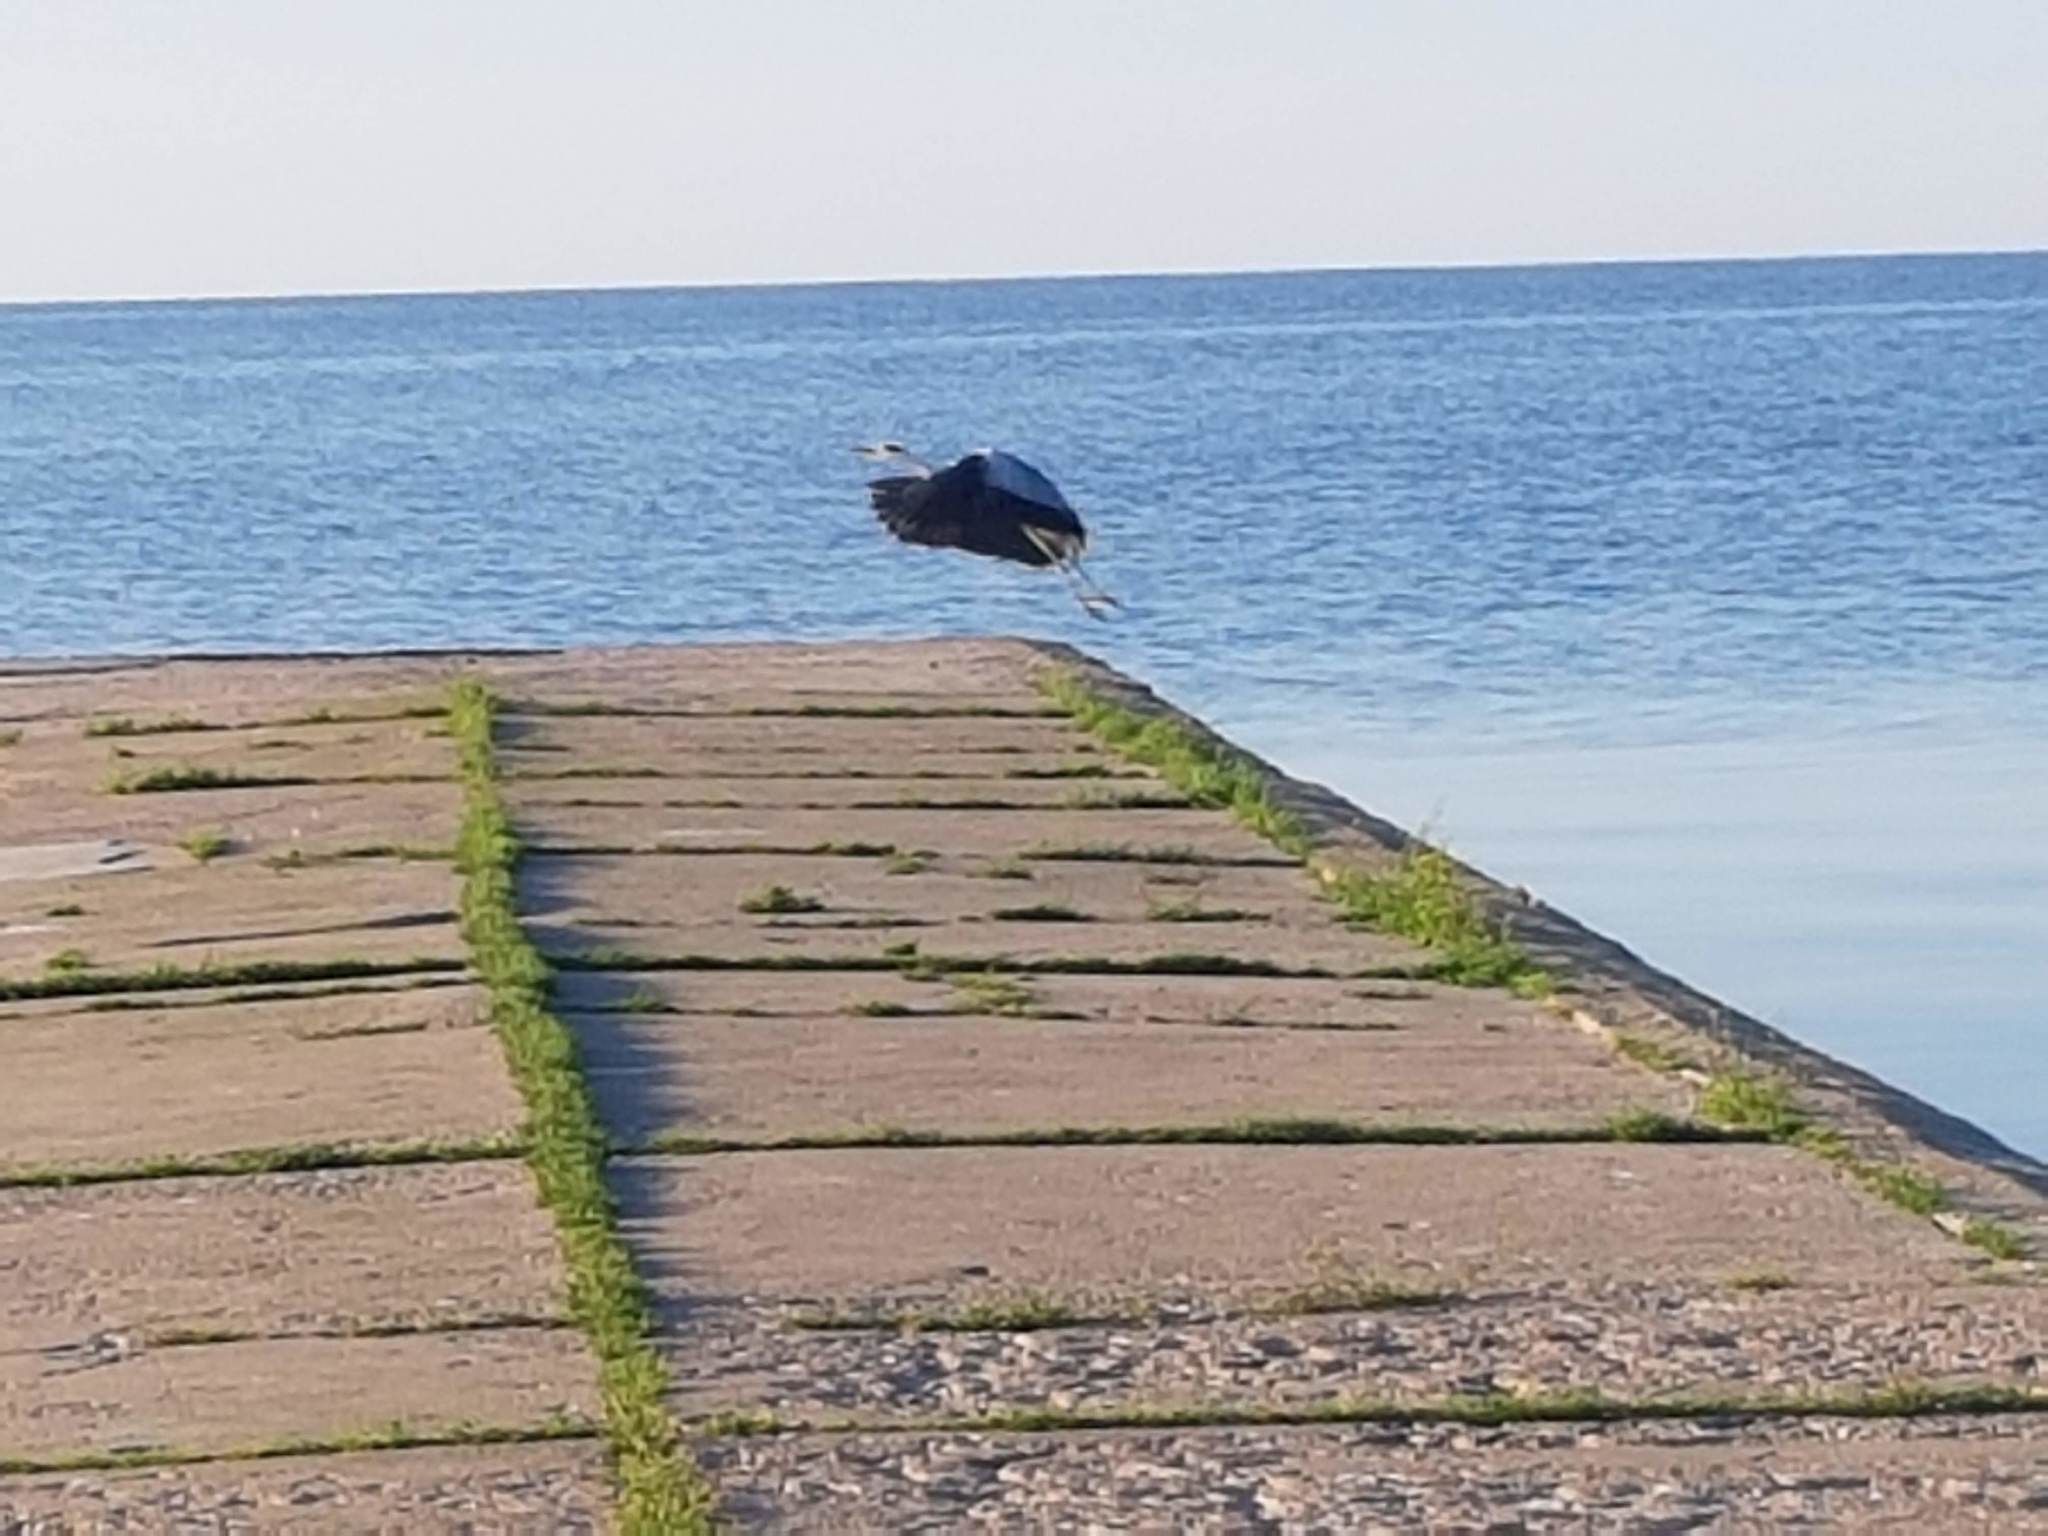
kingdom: Animalia
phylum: Chordata
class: Aves
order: Pelecaniformes
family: Ardeidae
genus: Ardea
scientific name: Ardea cinerea
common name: Grey heron
